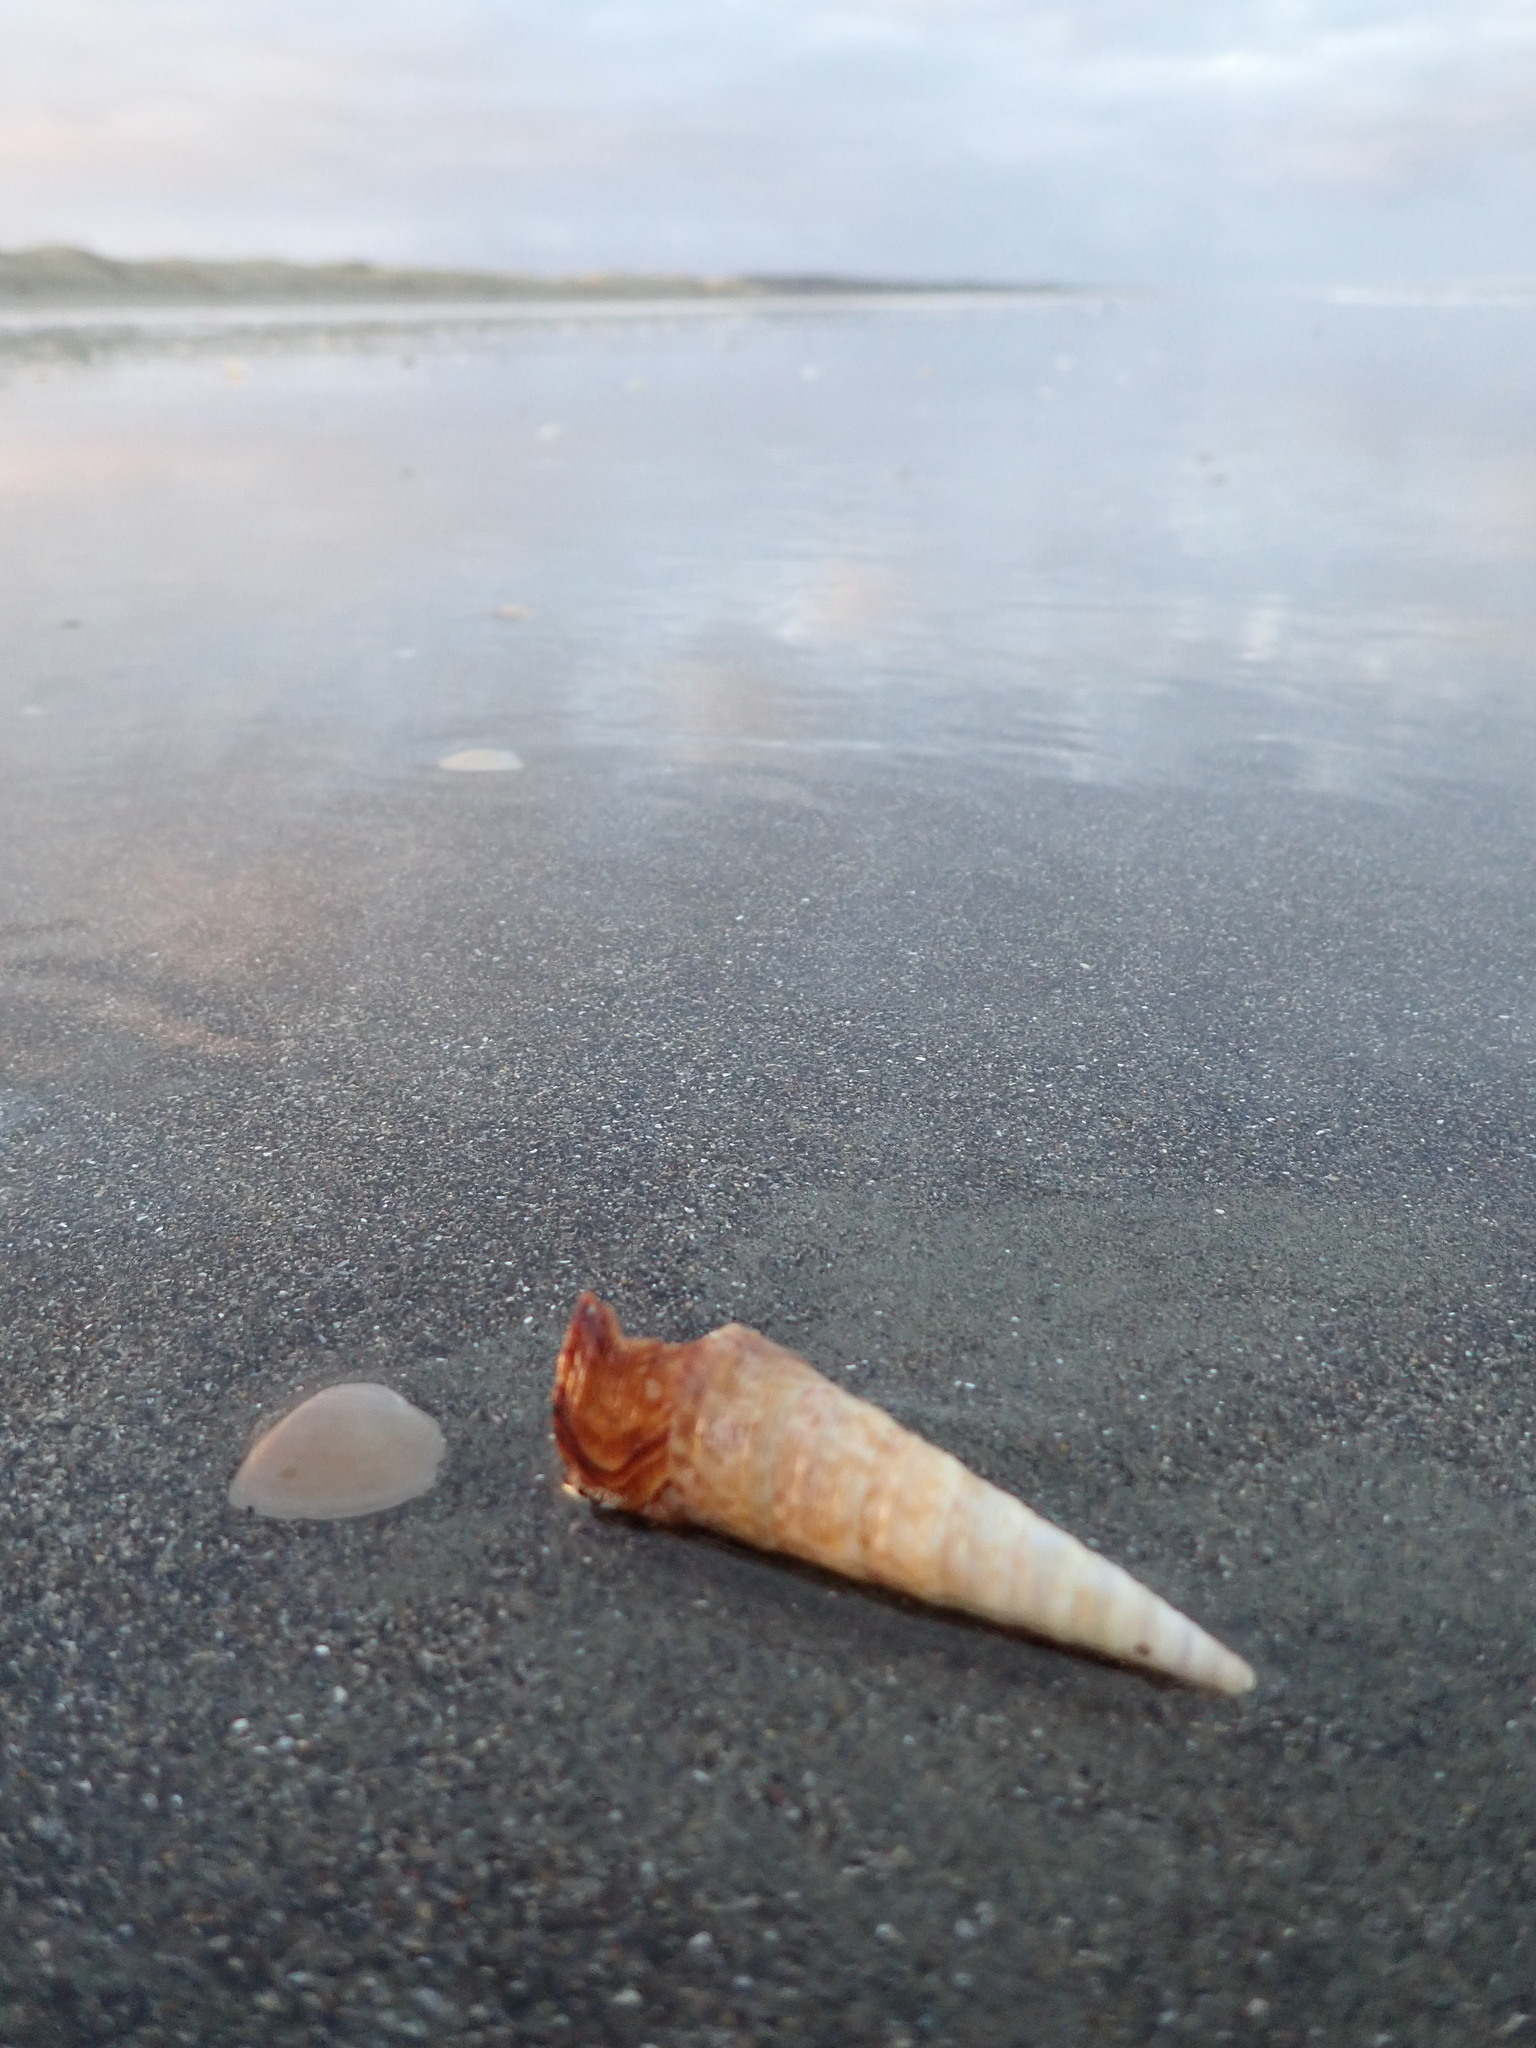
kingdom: Animalia
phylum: Mollusca
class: Gastropoda
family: Turritellidae
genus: Maoricolpus
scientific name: Maoricolpus roseus
